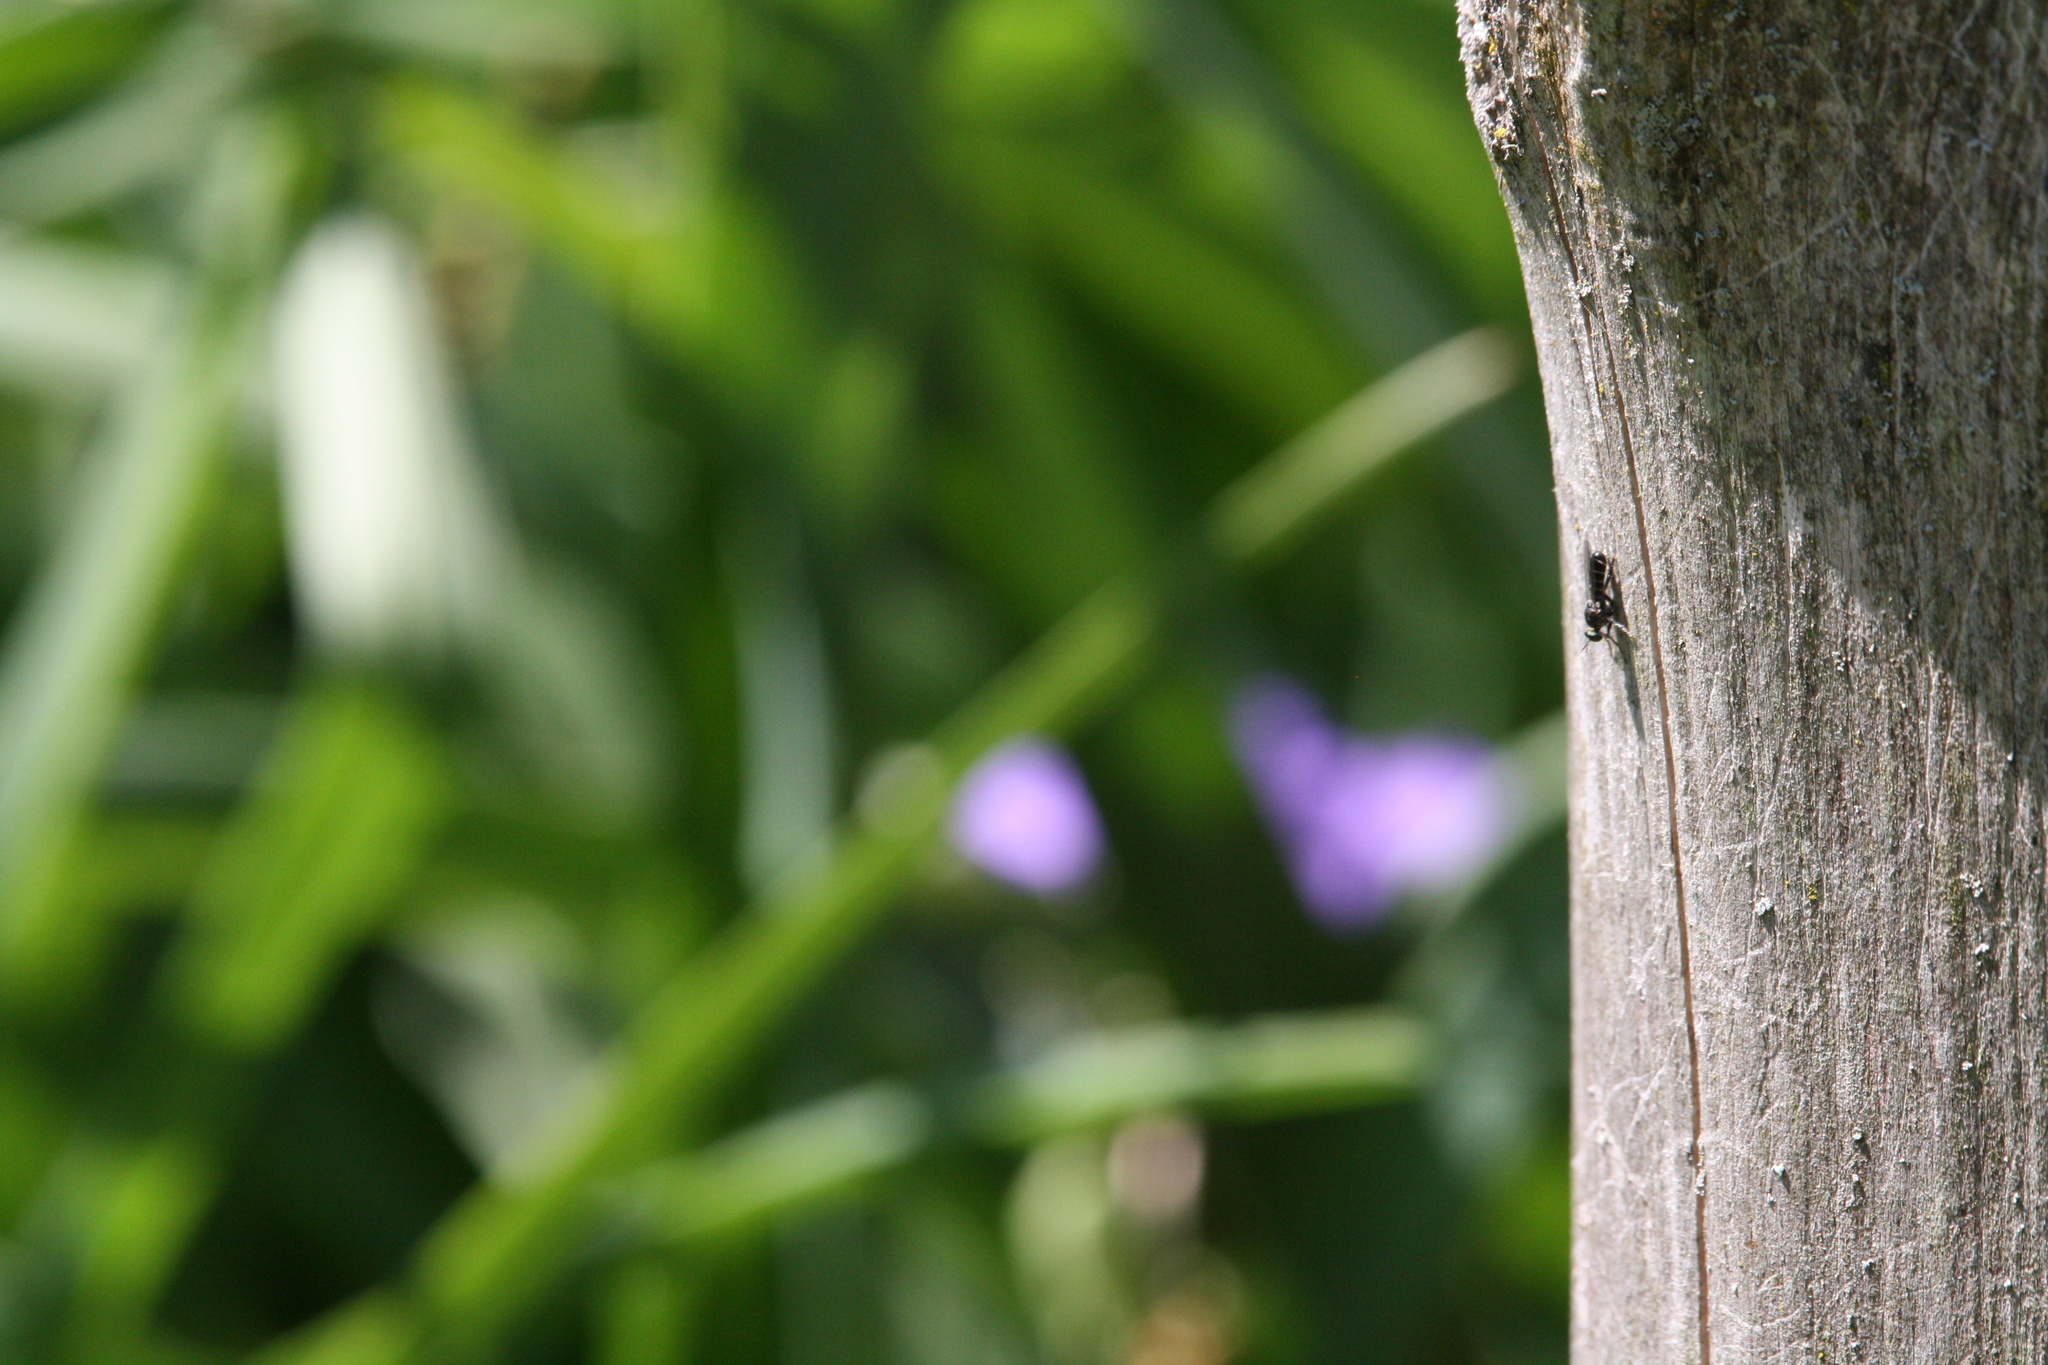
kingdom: Animalia
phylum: Arthropoda
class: Insecta
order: Diptera
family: Asilidae
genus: Atomosia
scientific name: Atomosia puella
